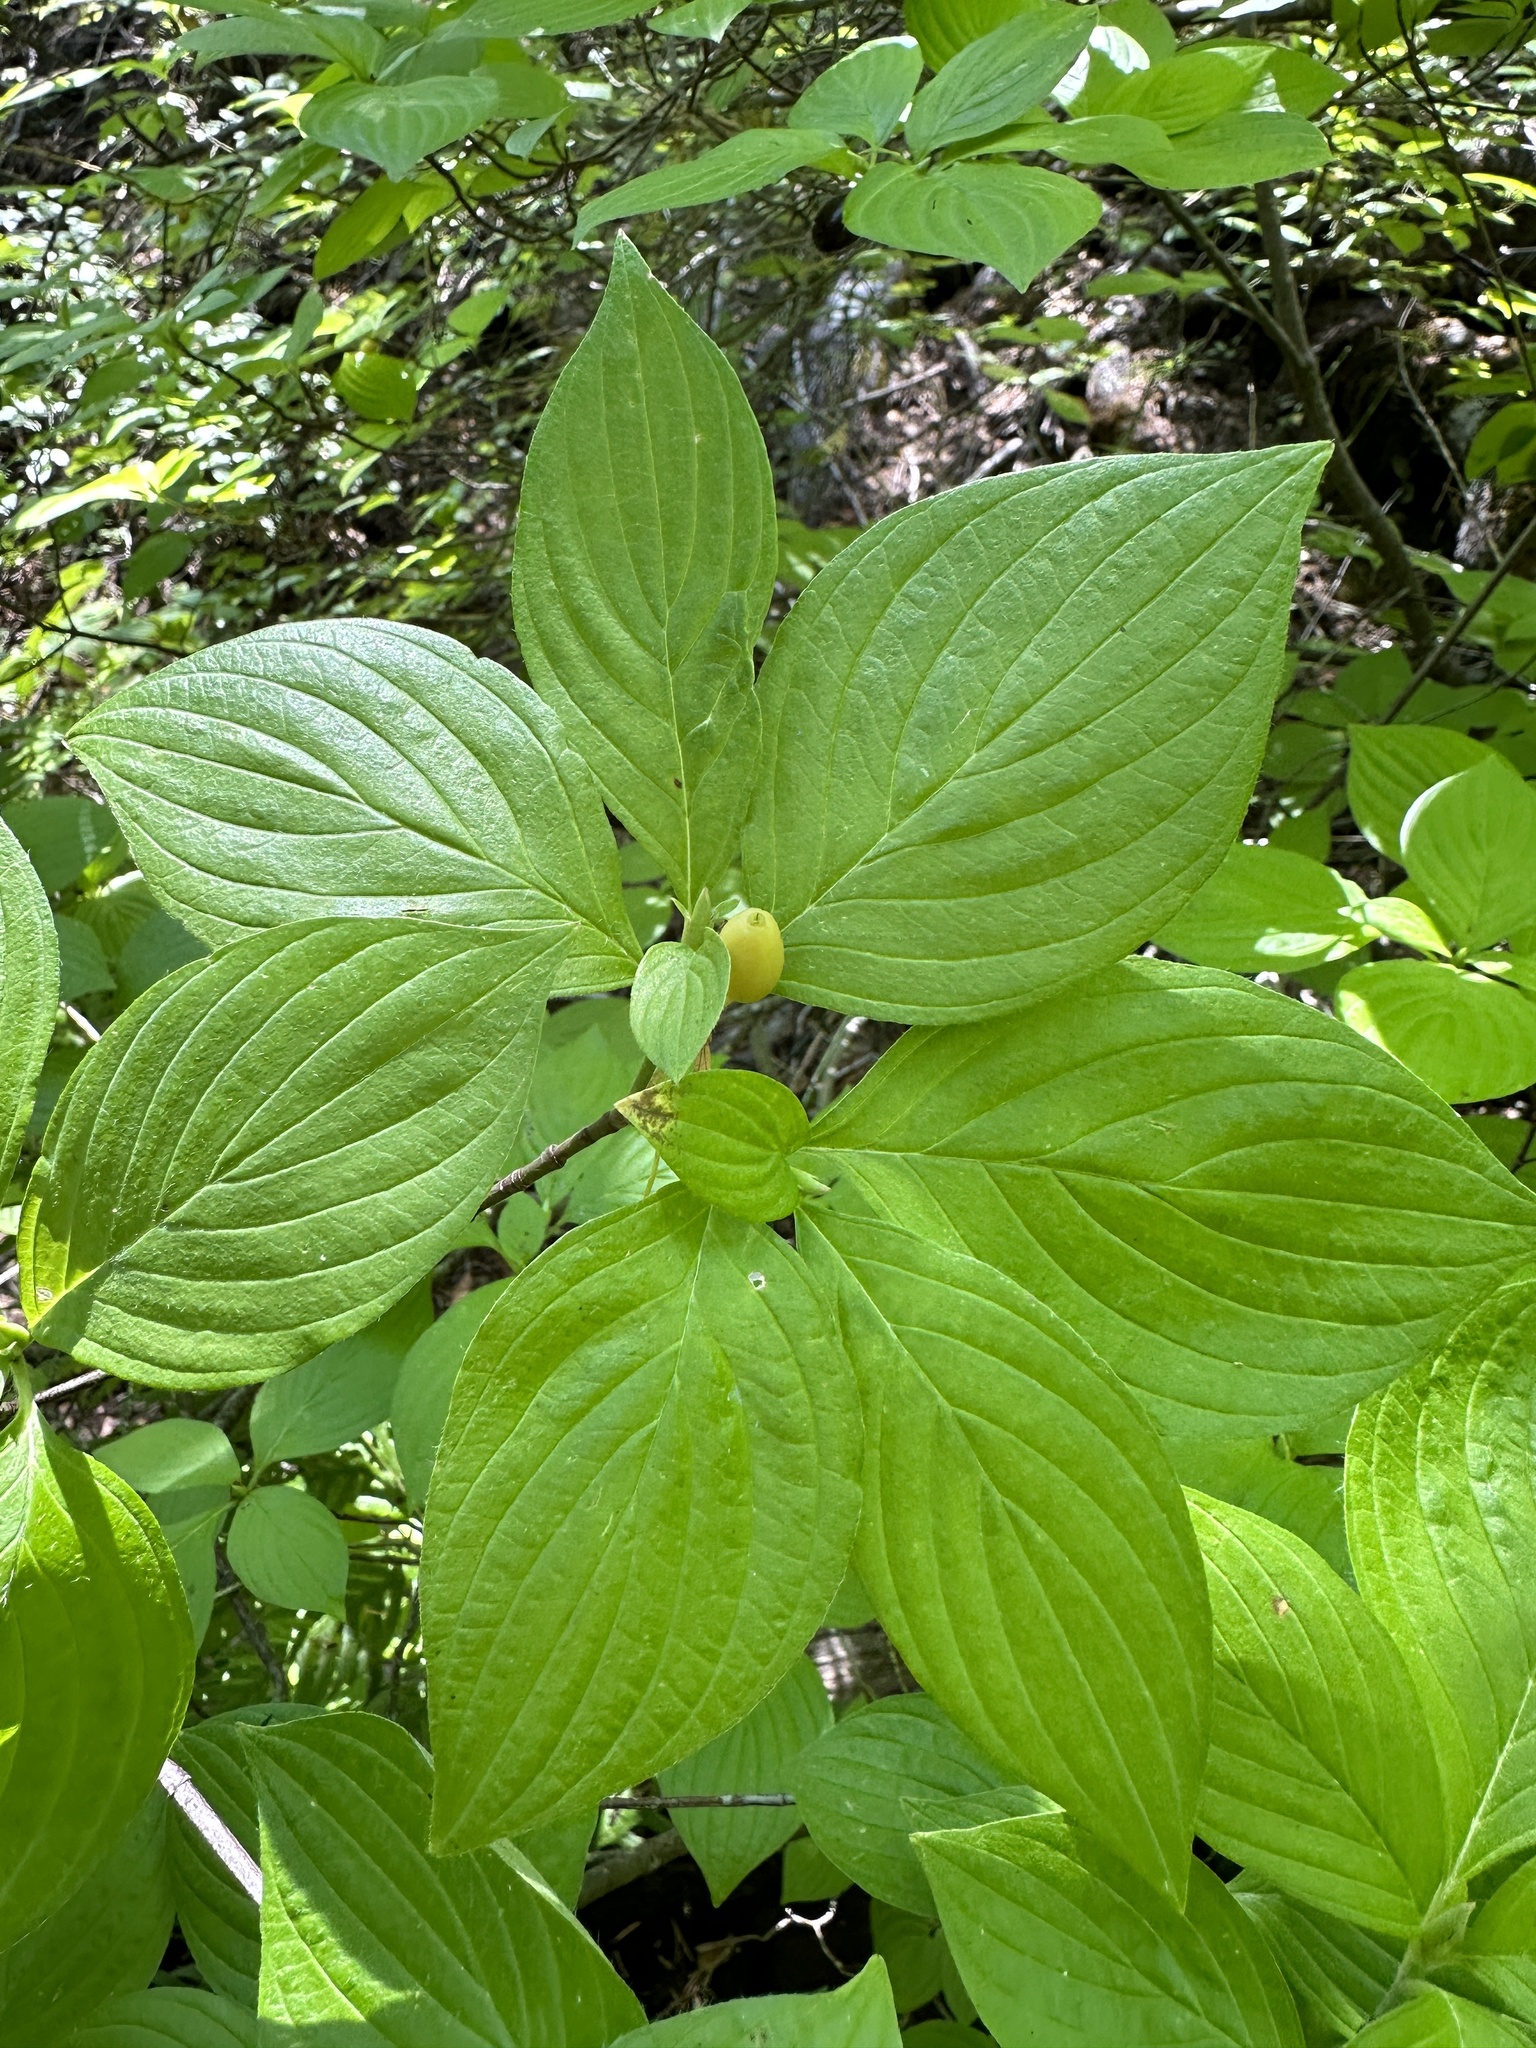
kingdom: Plantae
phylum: Tracheophyta
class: Magnoliopsida
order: Cornales
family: Cornaceae
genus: Cornus
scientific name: Cornus sessilis
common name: Blackfruit dogwood
